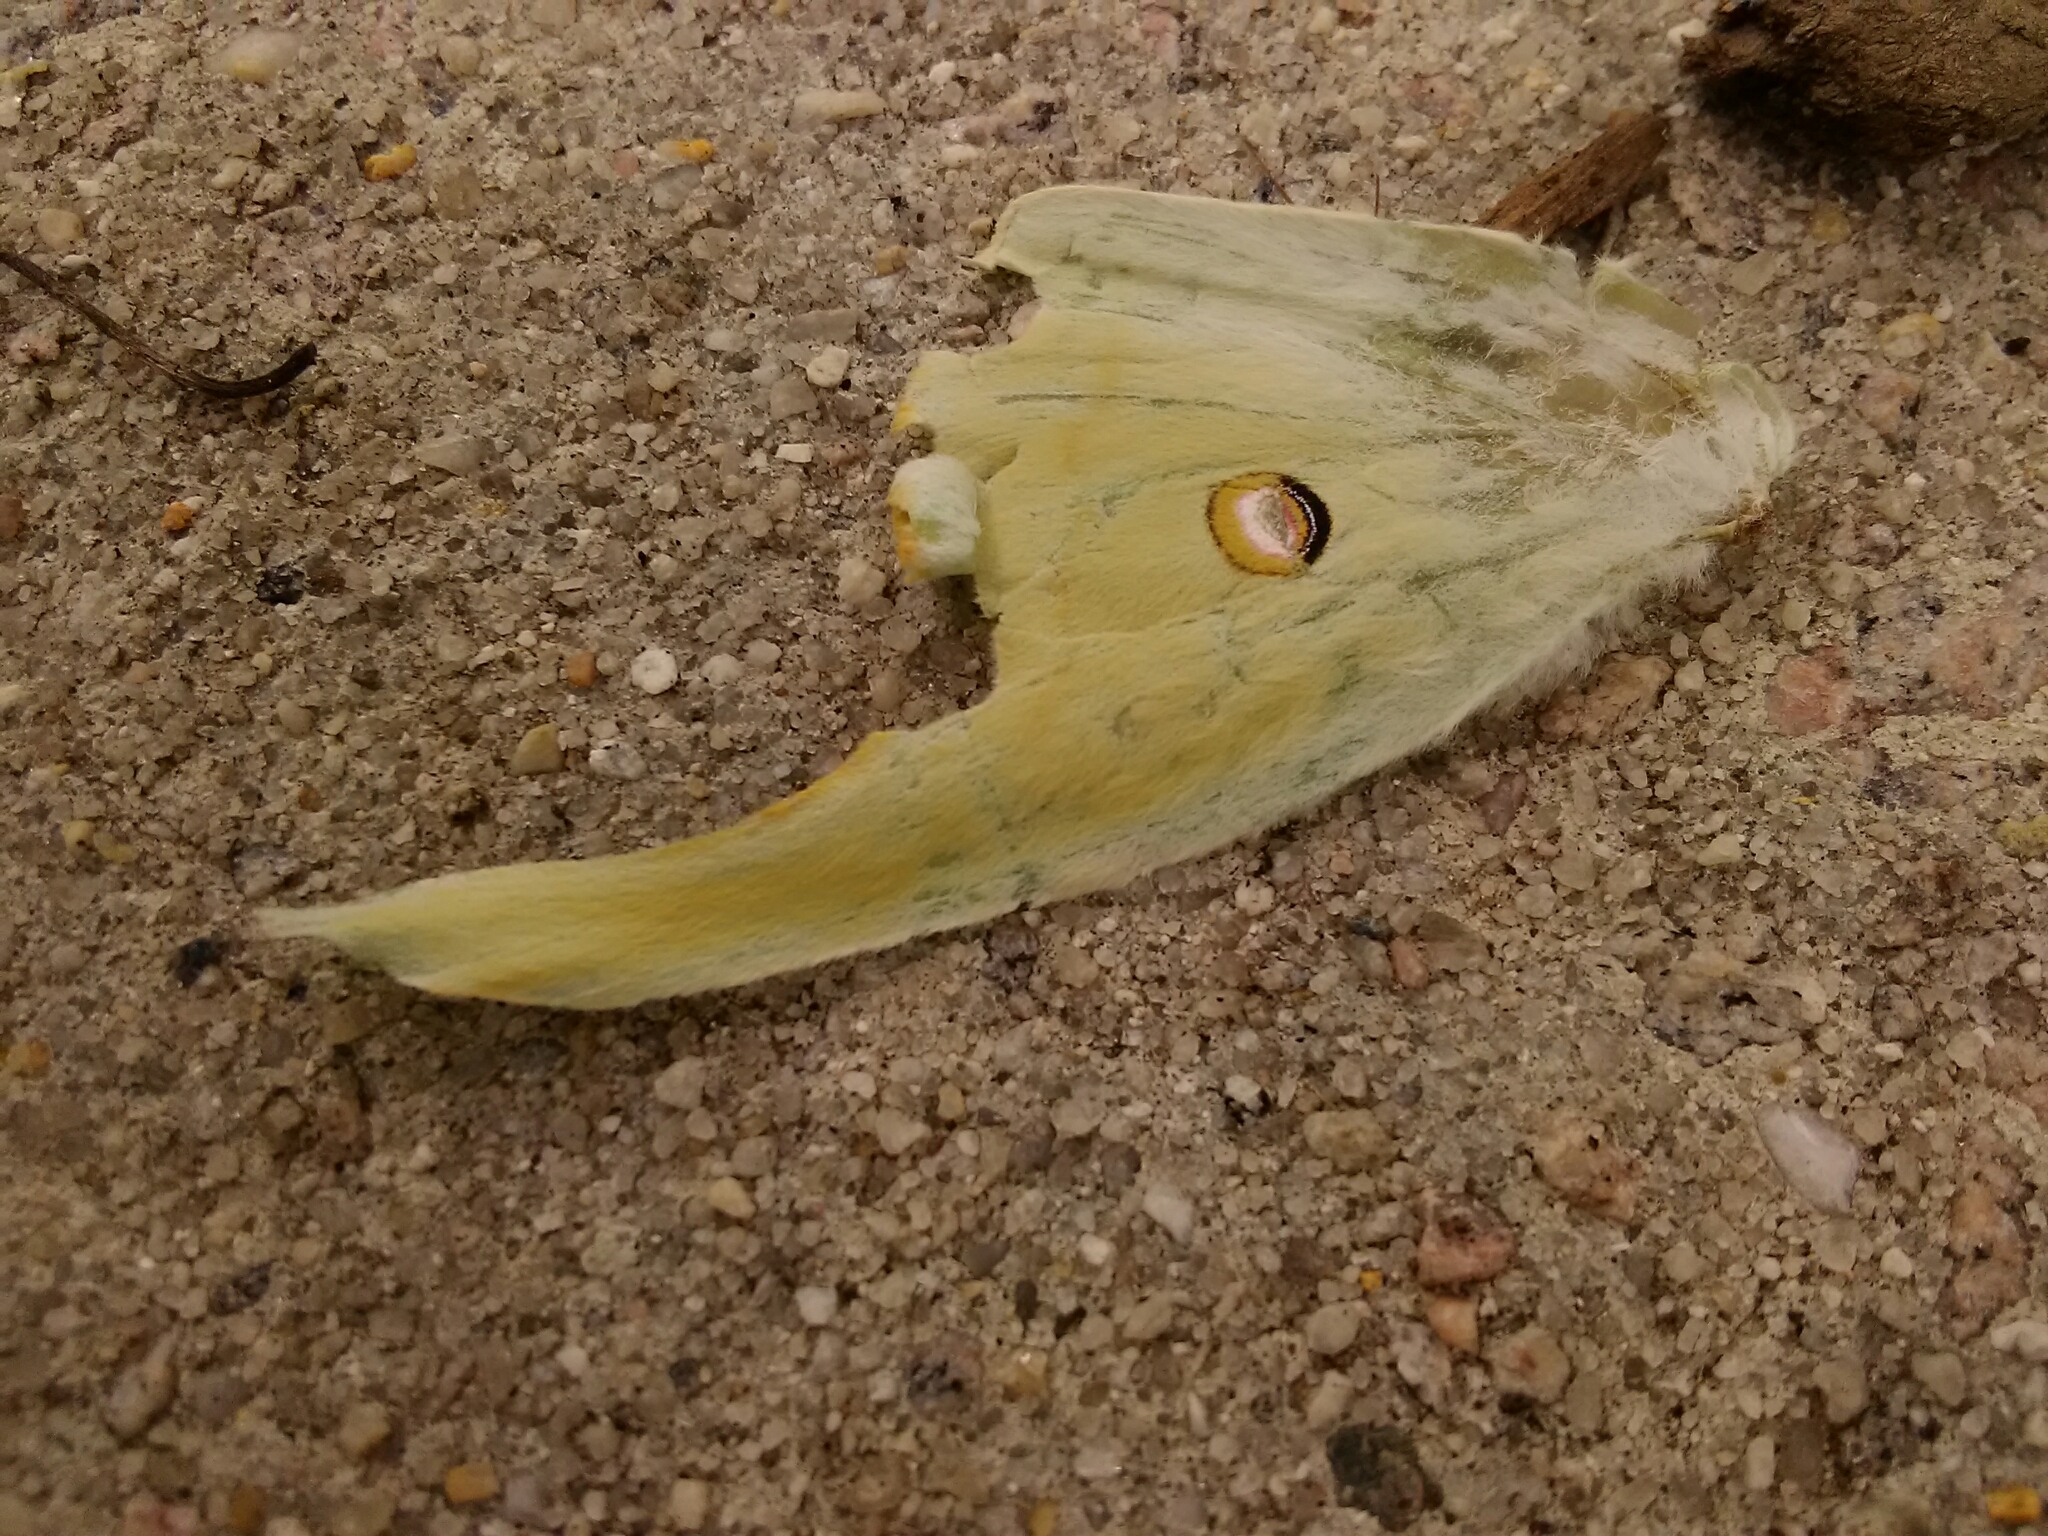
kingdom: Animalia
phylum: Arthropoda
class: Insecta
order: Lepidoptera
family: Saturniidae
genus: Actias
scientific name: Actias luna
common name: Luna moth
